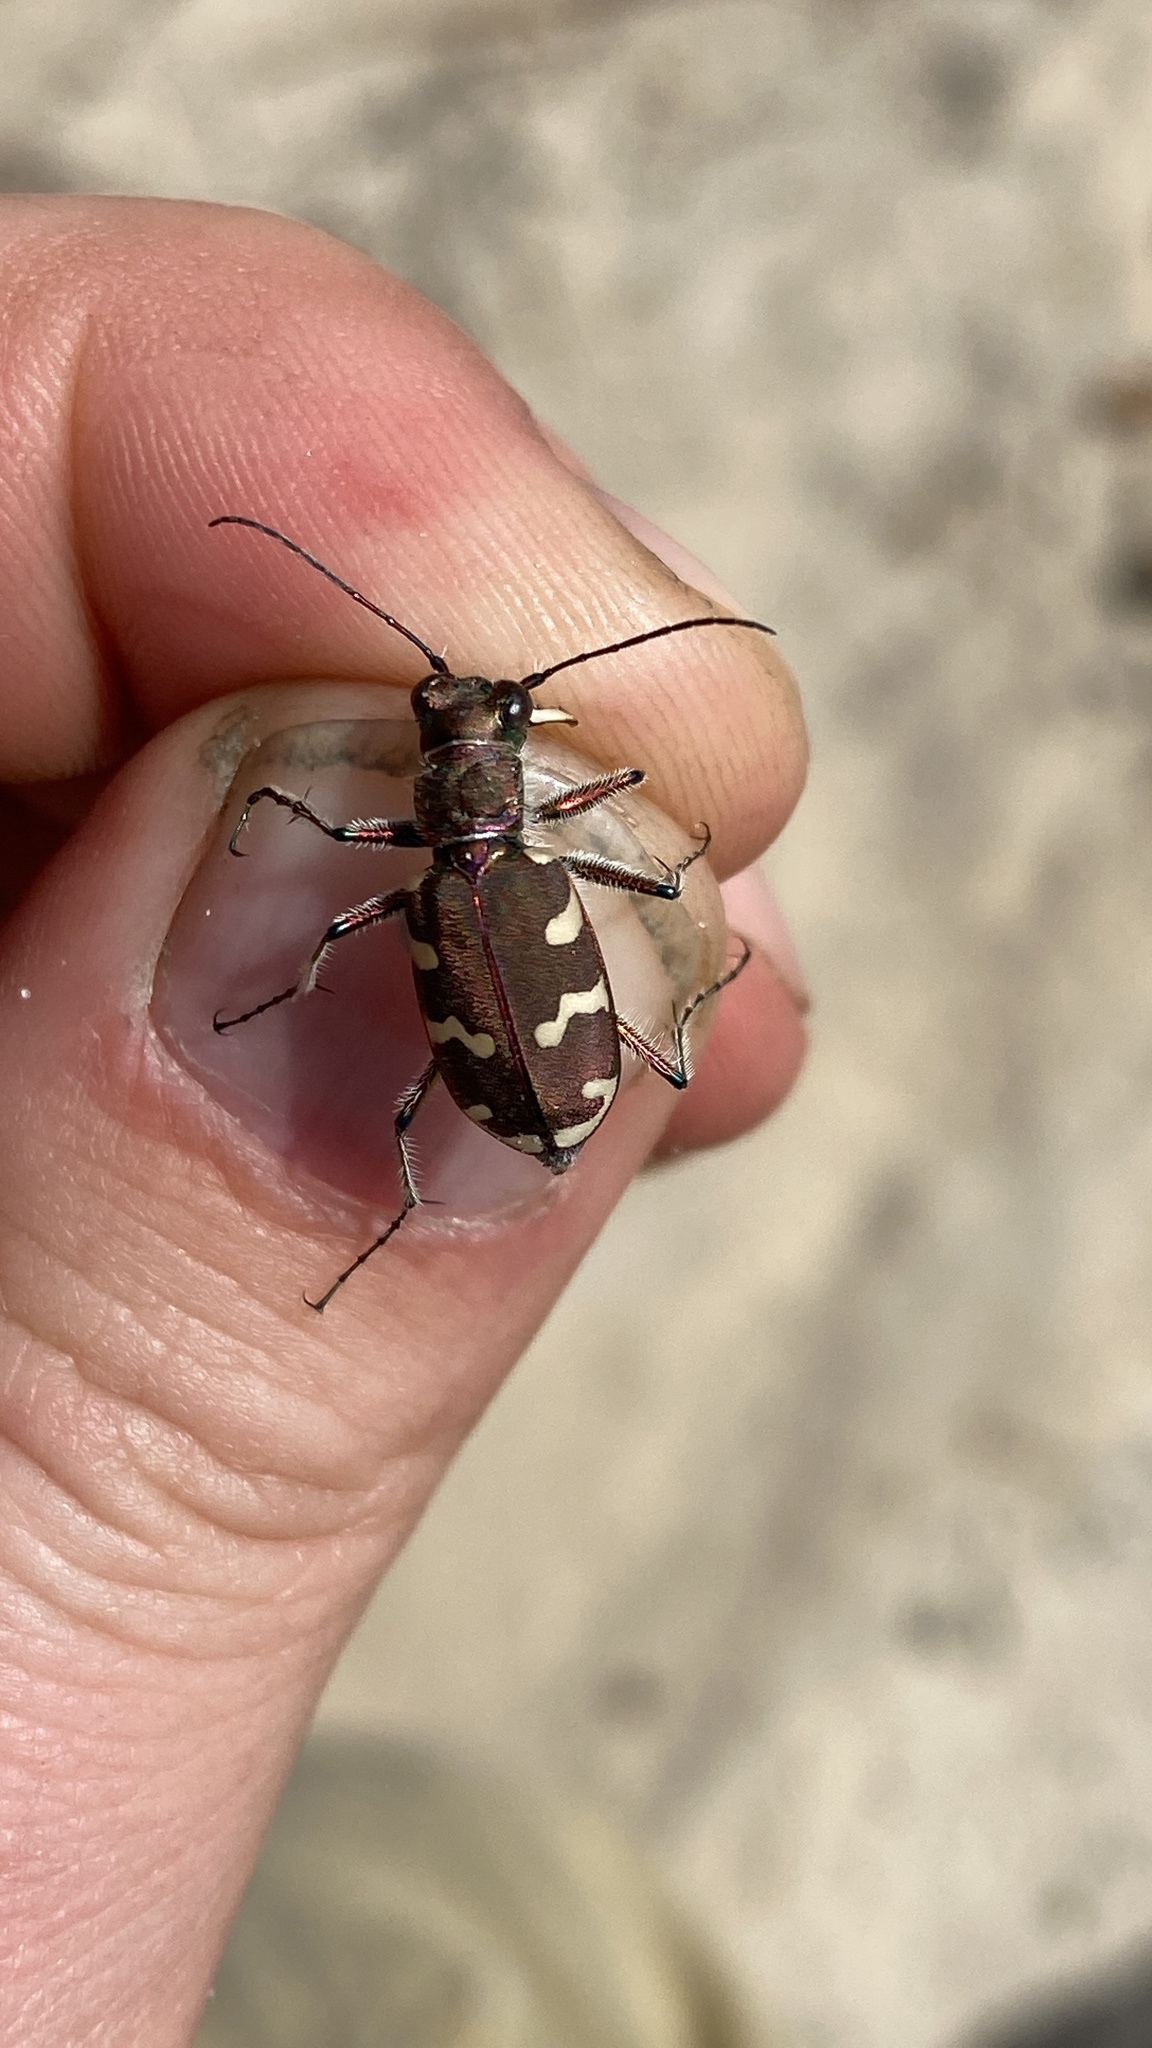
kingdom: Animalia
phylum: Arthropoda
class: Insecta
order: Coleoptera
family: Carabidae
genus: Cicindela
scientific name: Cicindela hybrida
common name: Northern dune tiger beetle
